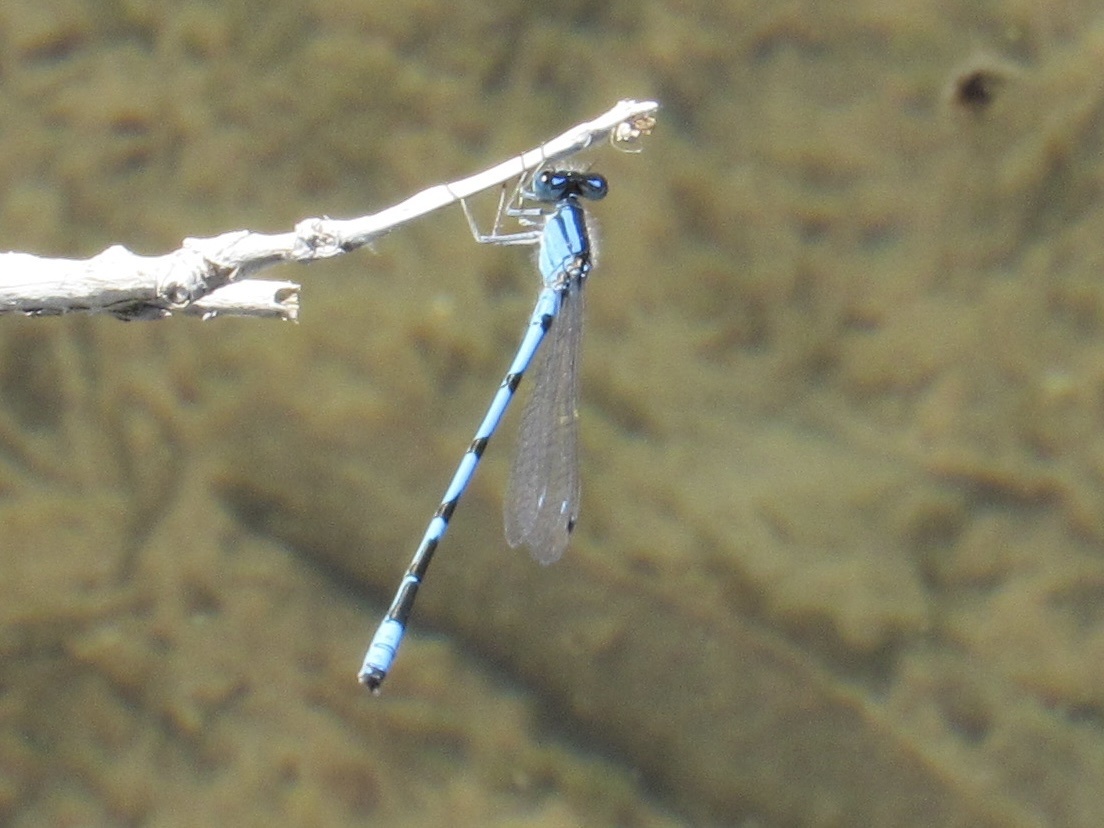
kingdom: Animalia
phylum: Arthropoda
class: Insecta
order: Odonata
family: Coenagrionidae
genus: Enallagma
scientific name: Enallagma civile
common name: Damselfly
